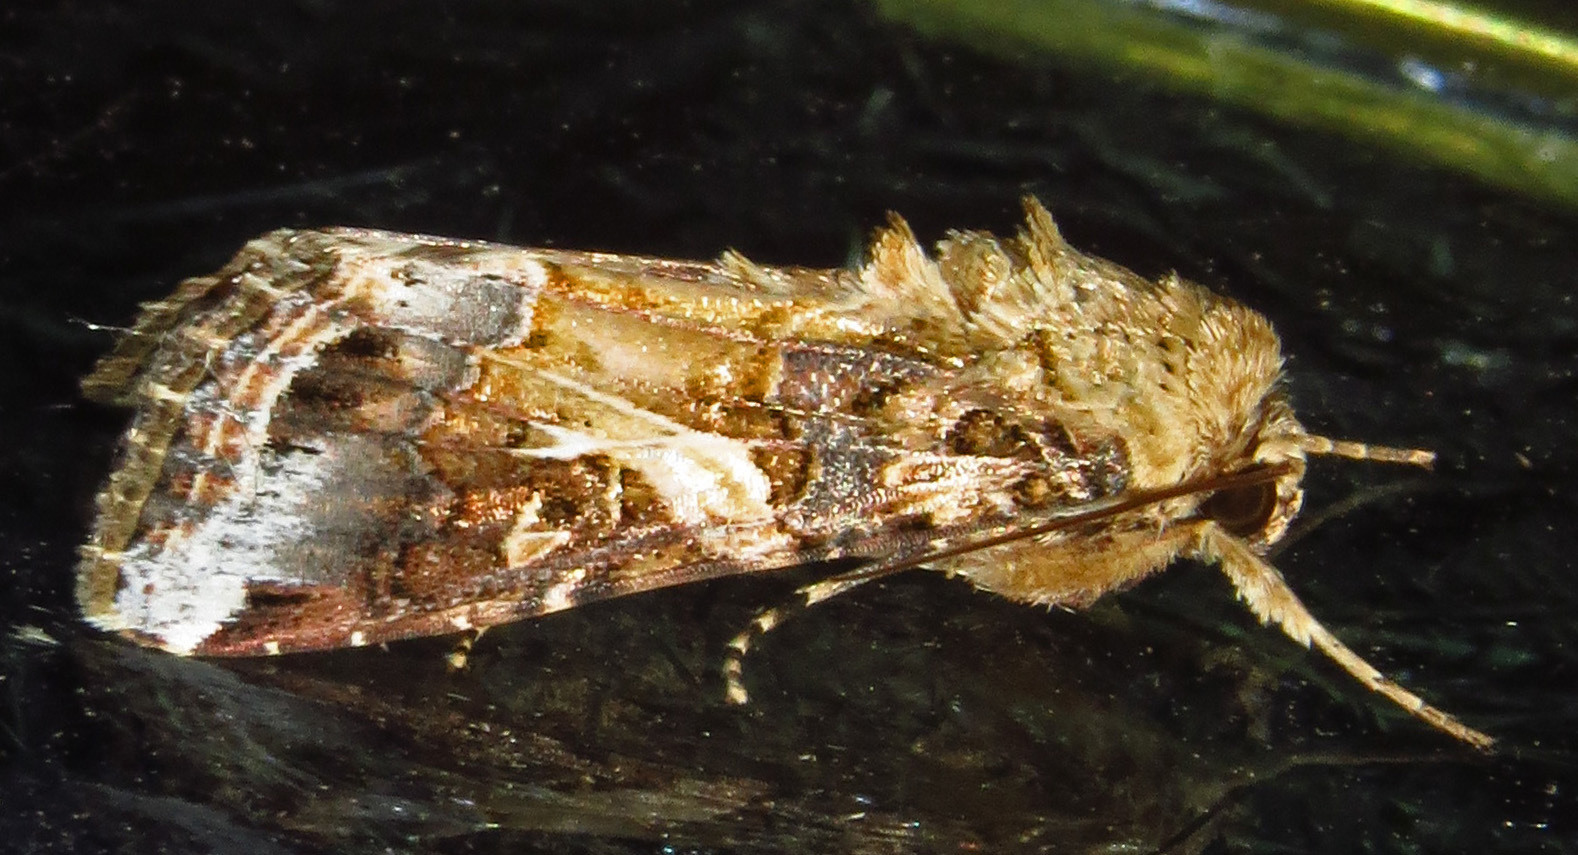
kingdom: Animalia
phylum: Arthropoda
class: Insecta
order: Lepidoptera
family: Noctuidae
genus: Spodoptera
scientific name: Spodoptera ornithogalli
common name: Yellow-striped armyworm
